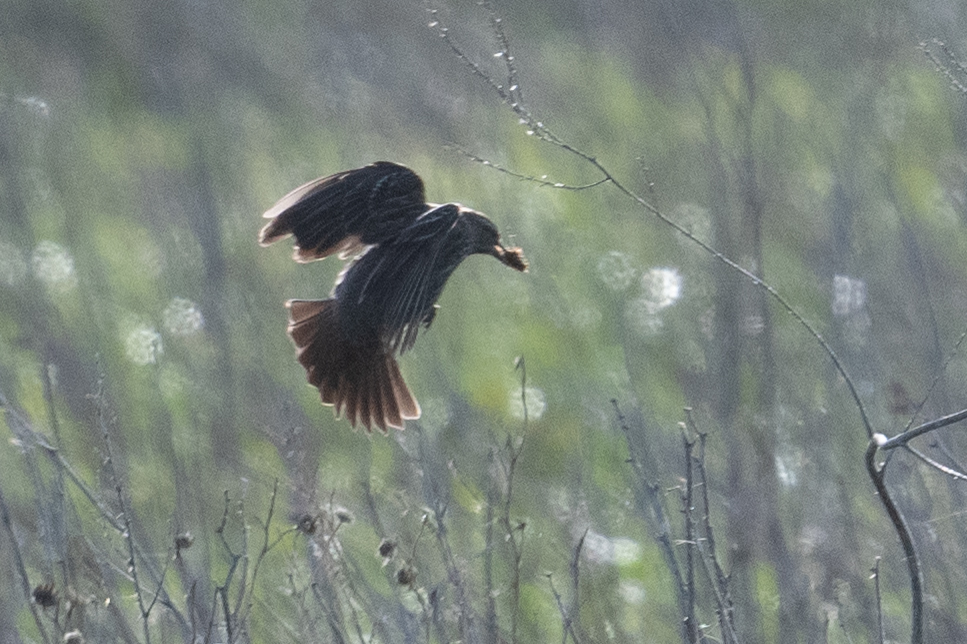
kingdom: Animalia
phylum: Chordata
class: Aves
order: Passeriformes
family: Icteridae
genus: Agelaius
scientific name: Agelaius phoeniceus
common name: Red-winged blackbird
